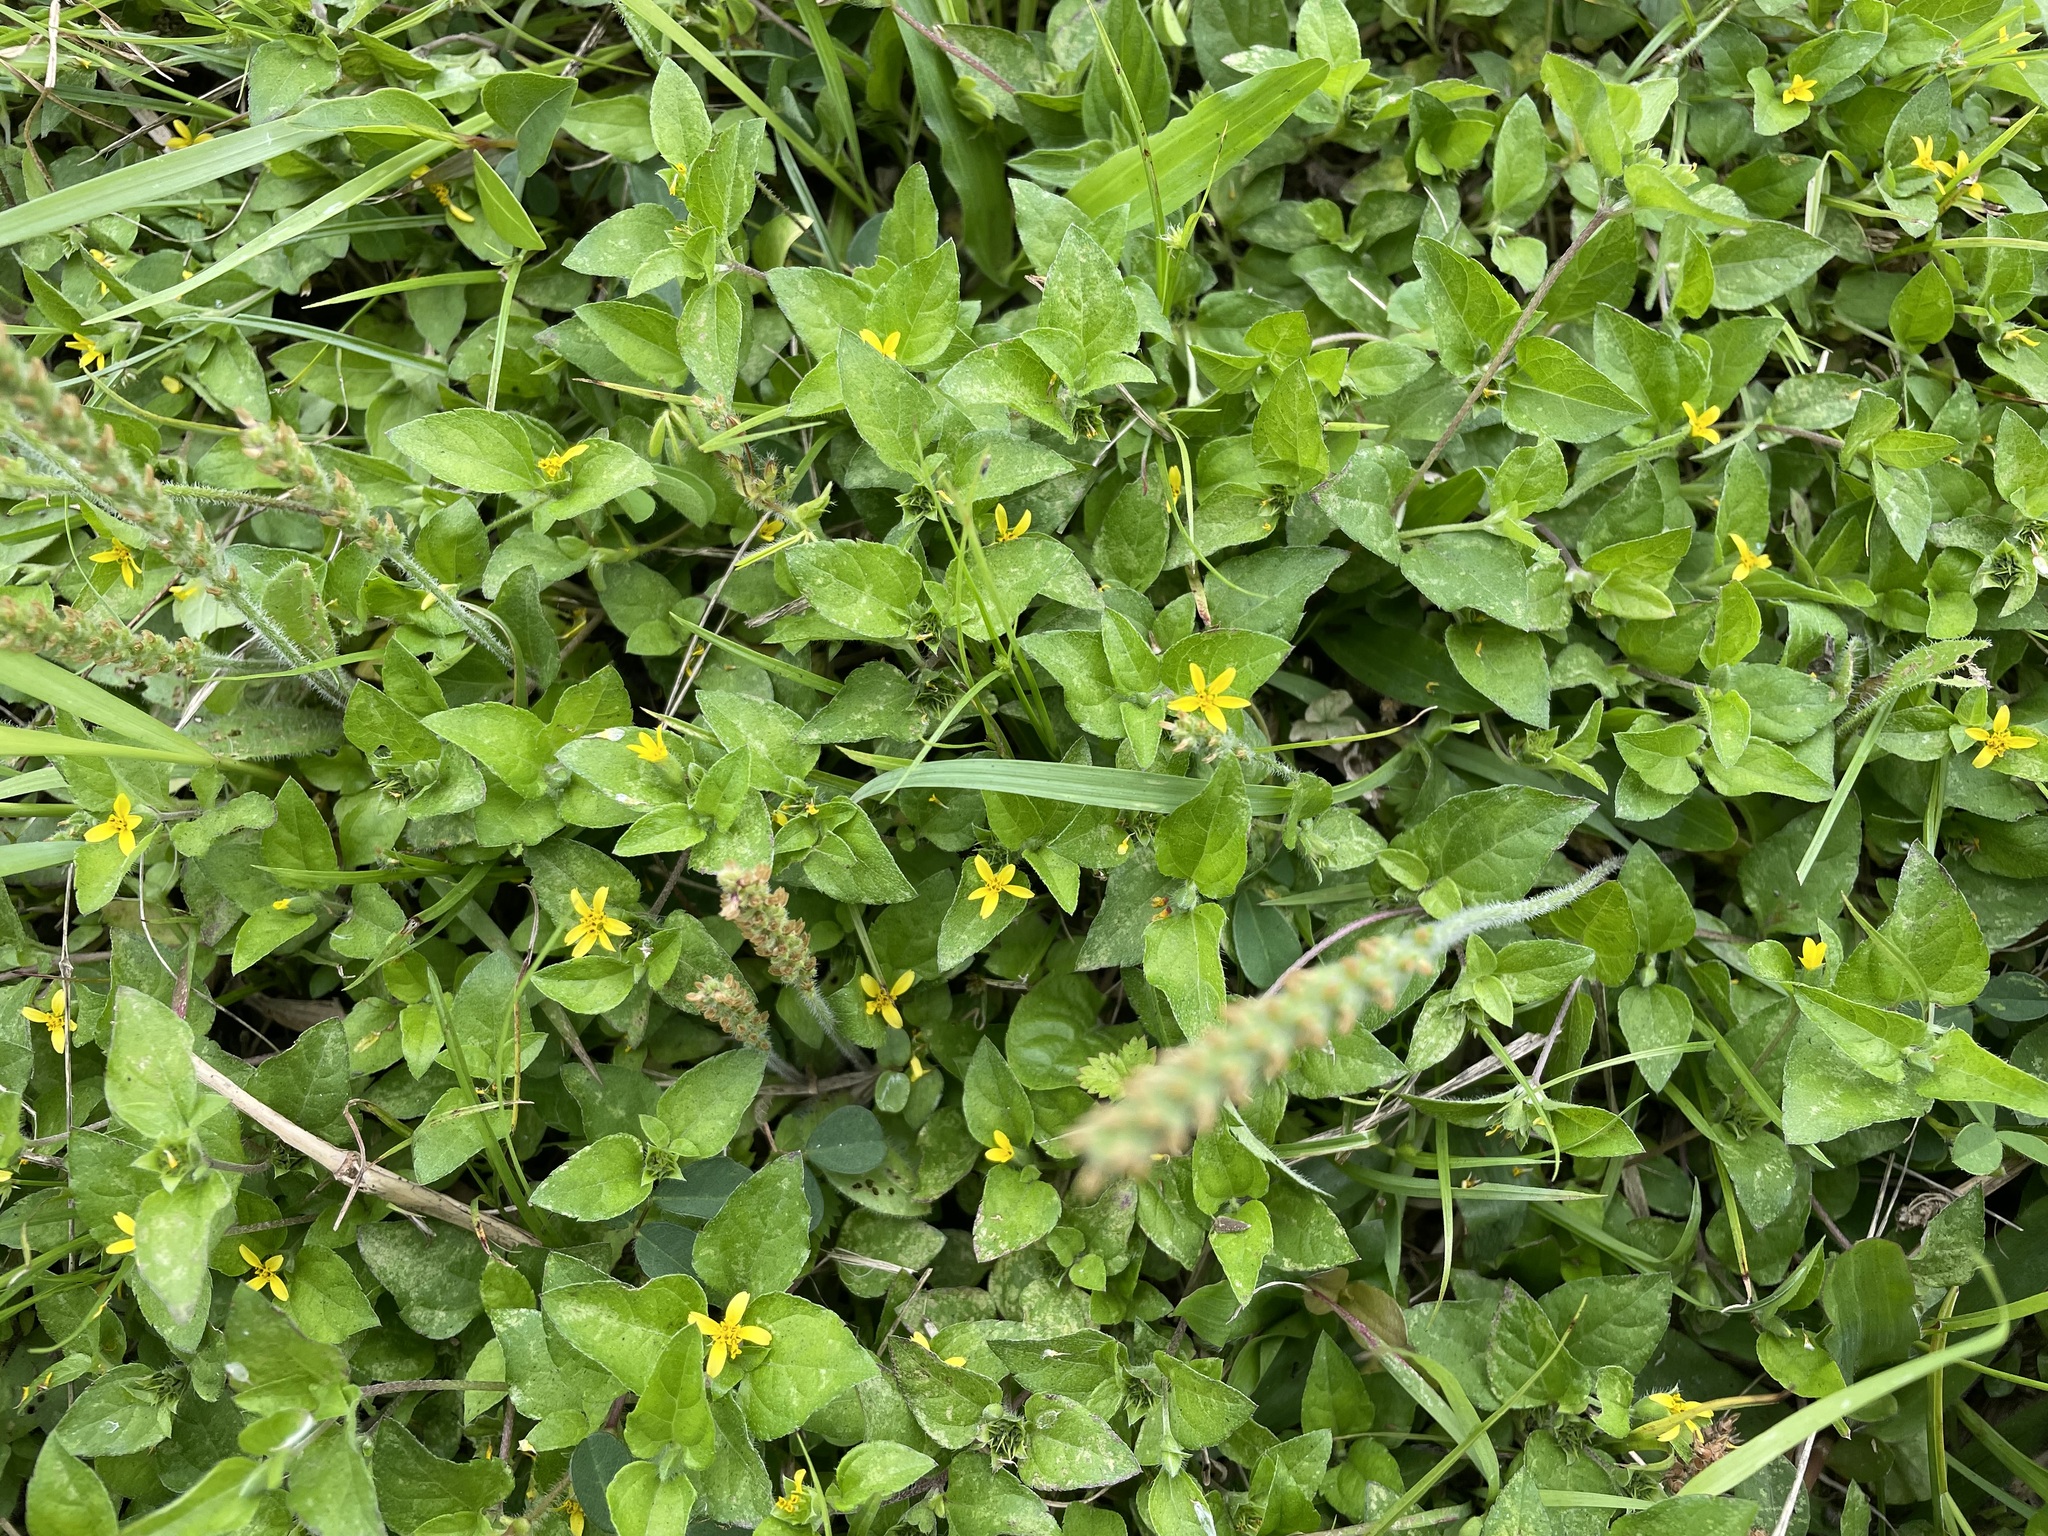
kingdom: Plantae
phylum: Tracheophyta
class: Magnoliopsida
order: Asterales
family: Asteraceae
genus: Calyptocarpus
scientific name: Calyptocarpus vialis
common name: Straggler daisy
